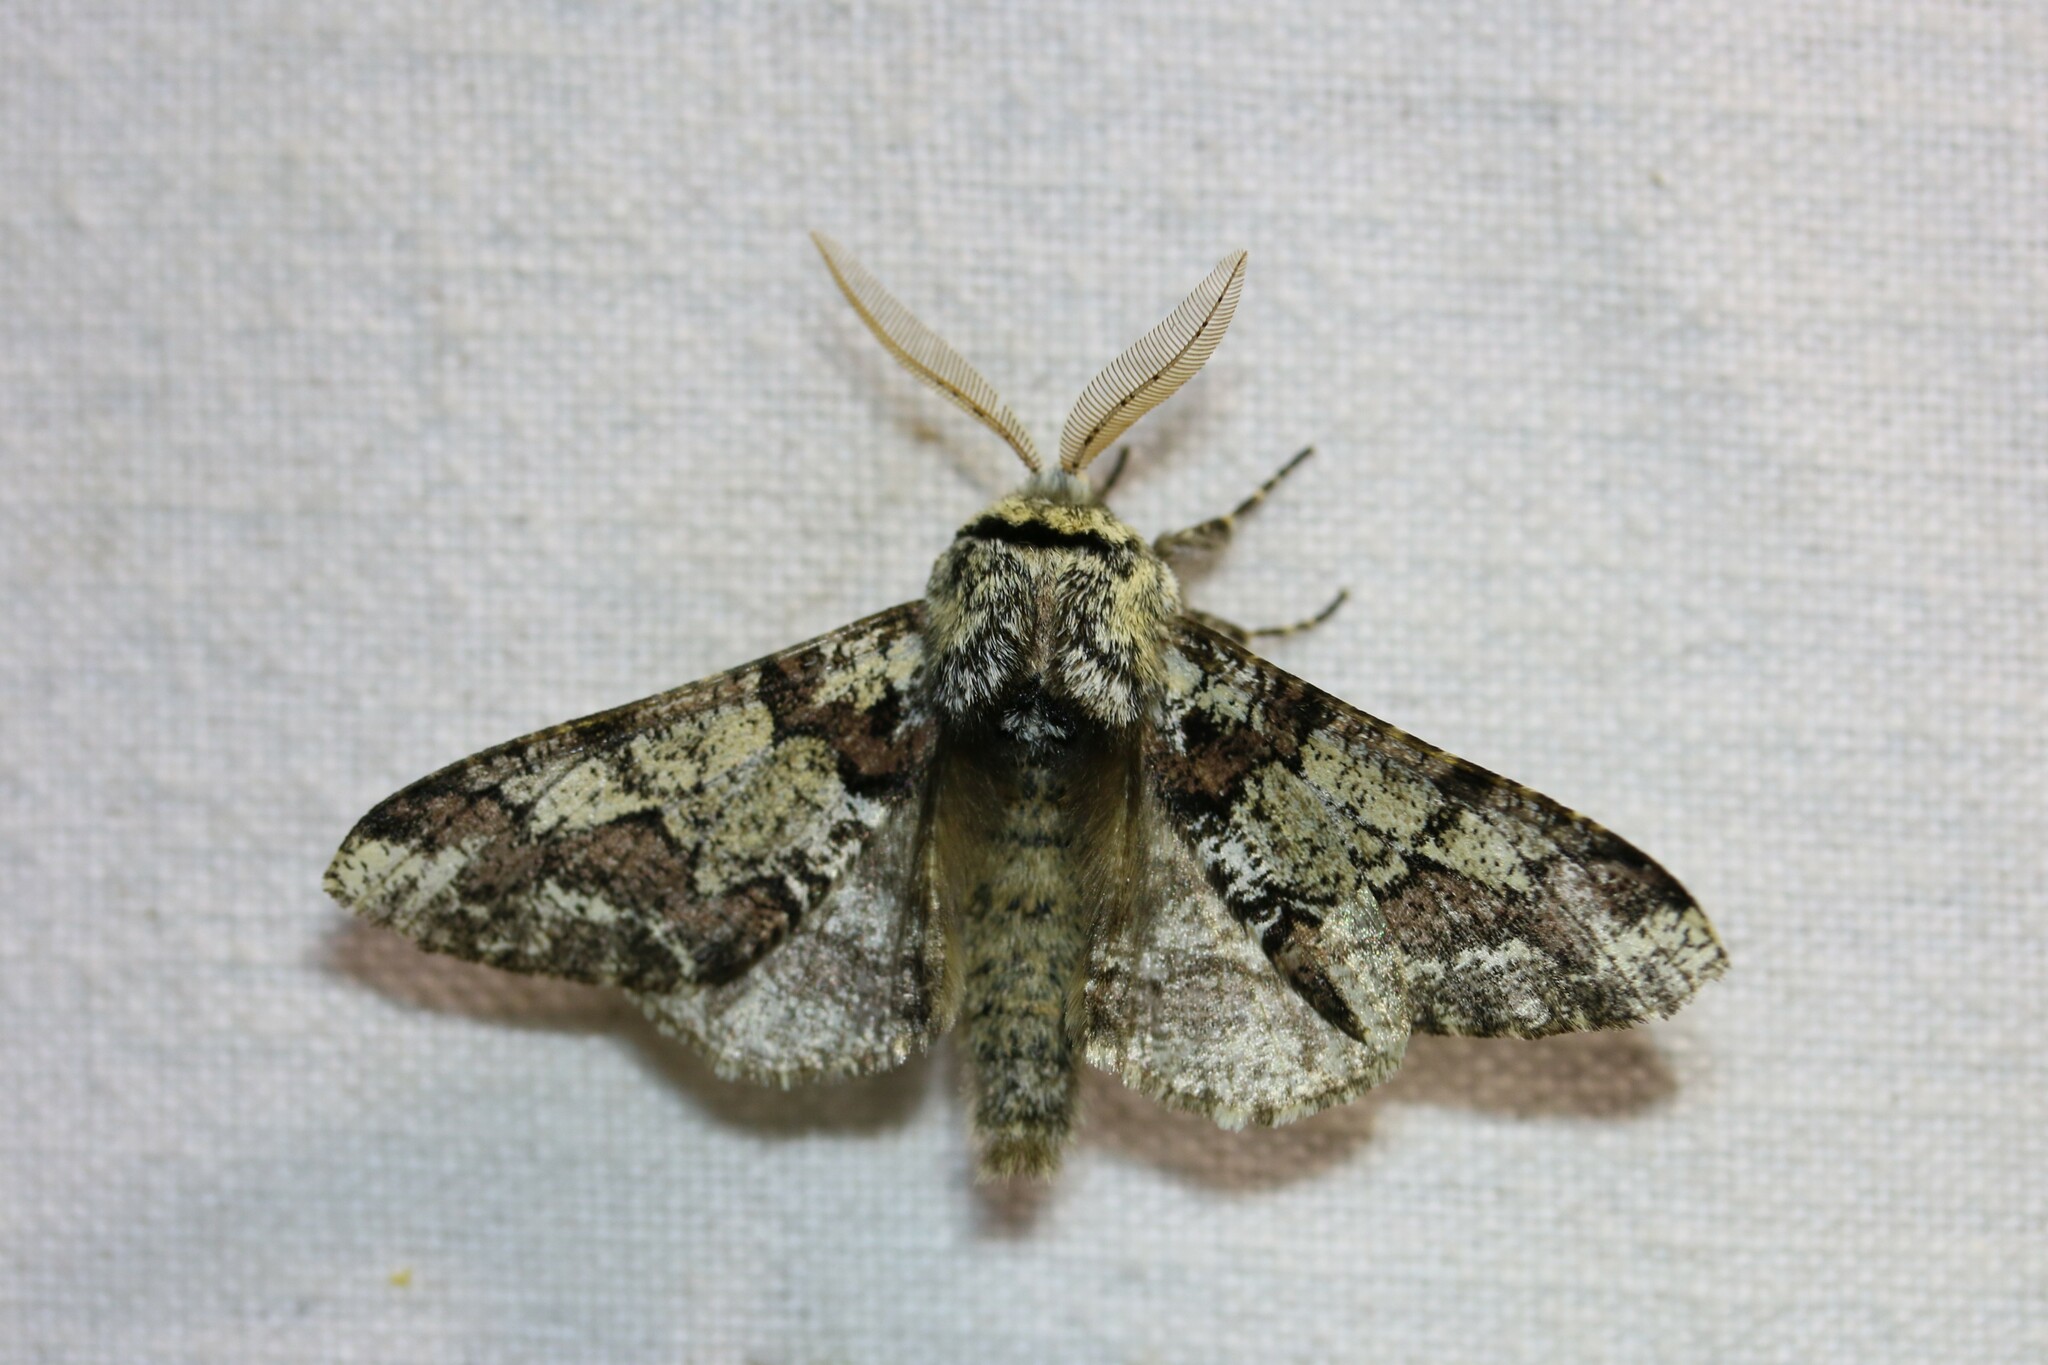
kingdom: Animalia
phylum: Arthropoda
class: Insecta
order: Lepidoptera
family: Geometridae
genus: Biston
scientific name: Biston strataria
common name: Oak beauty
